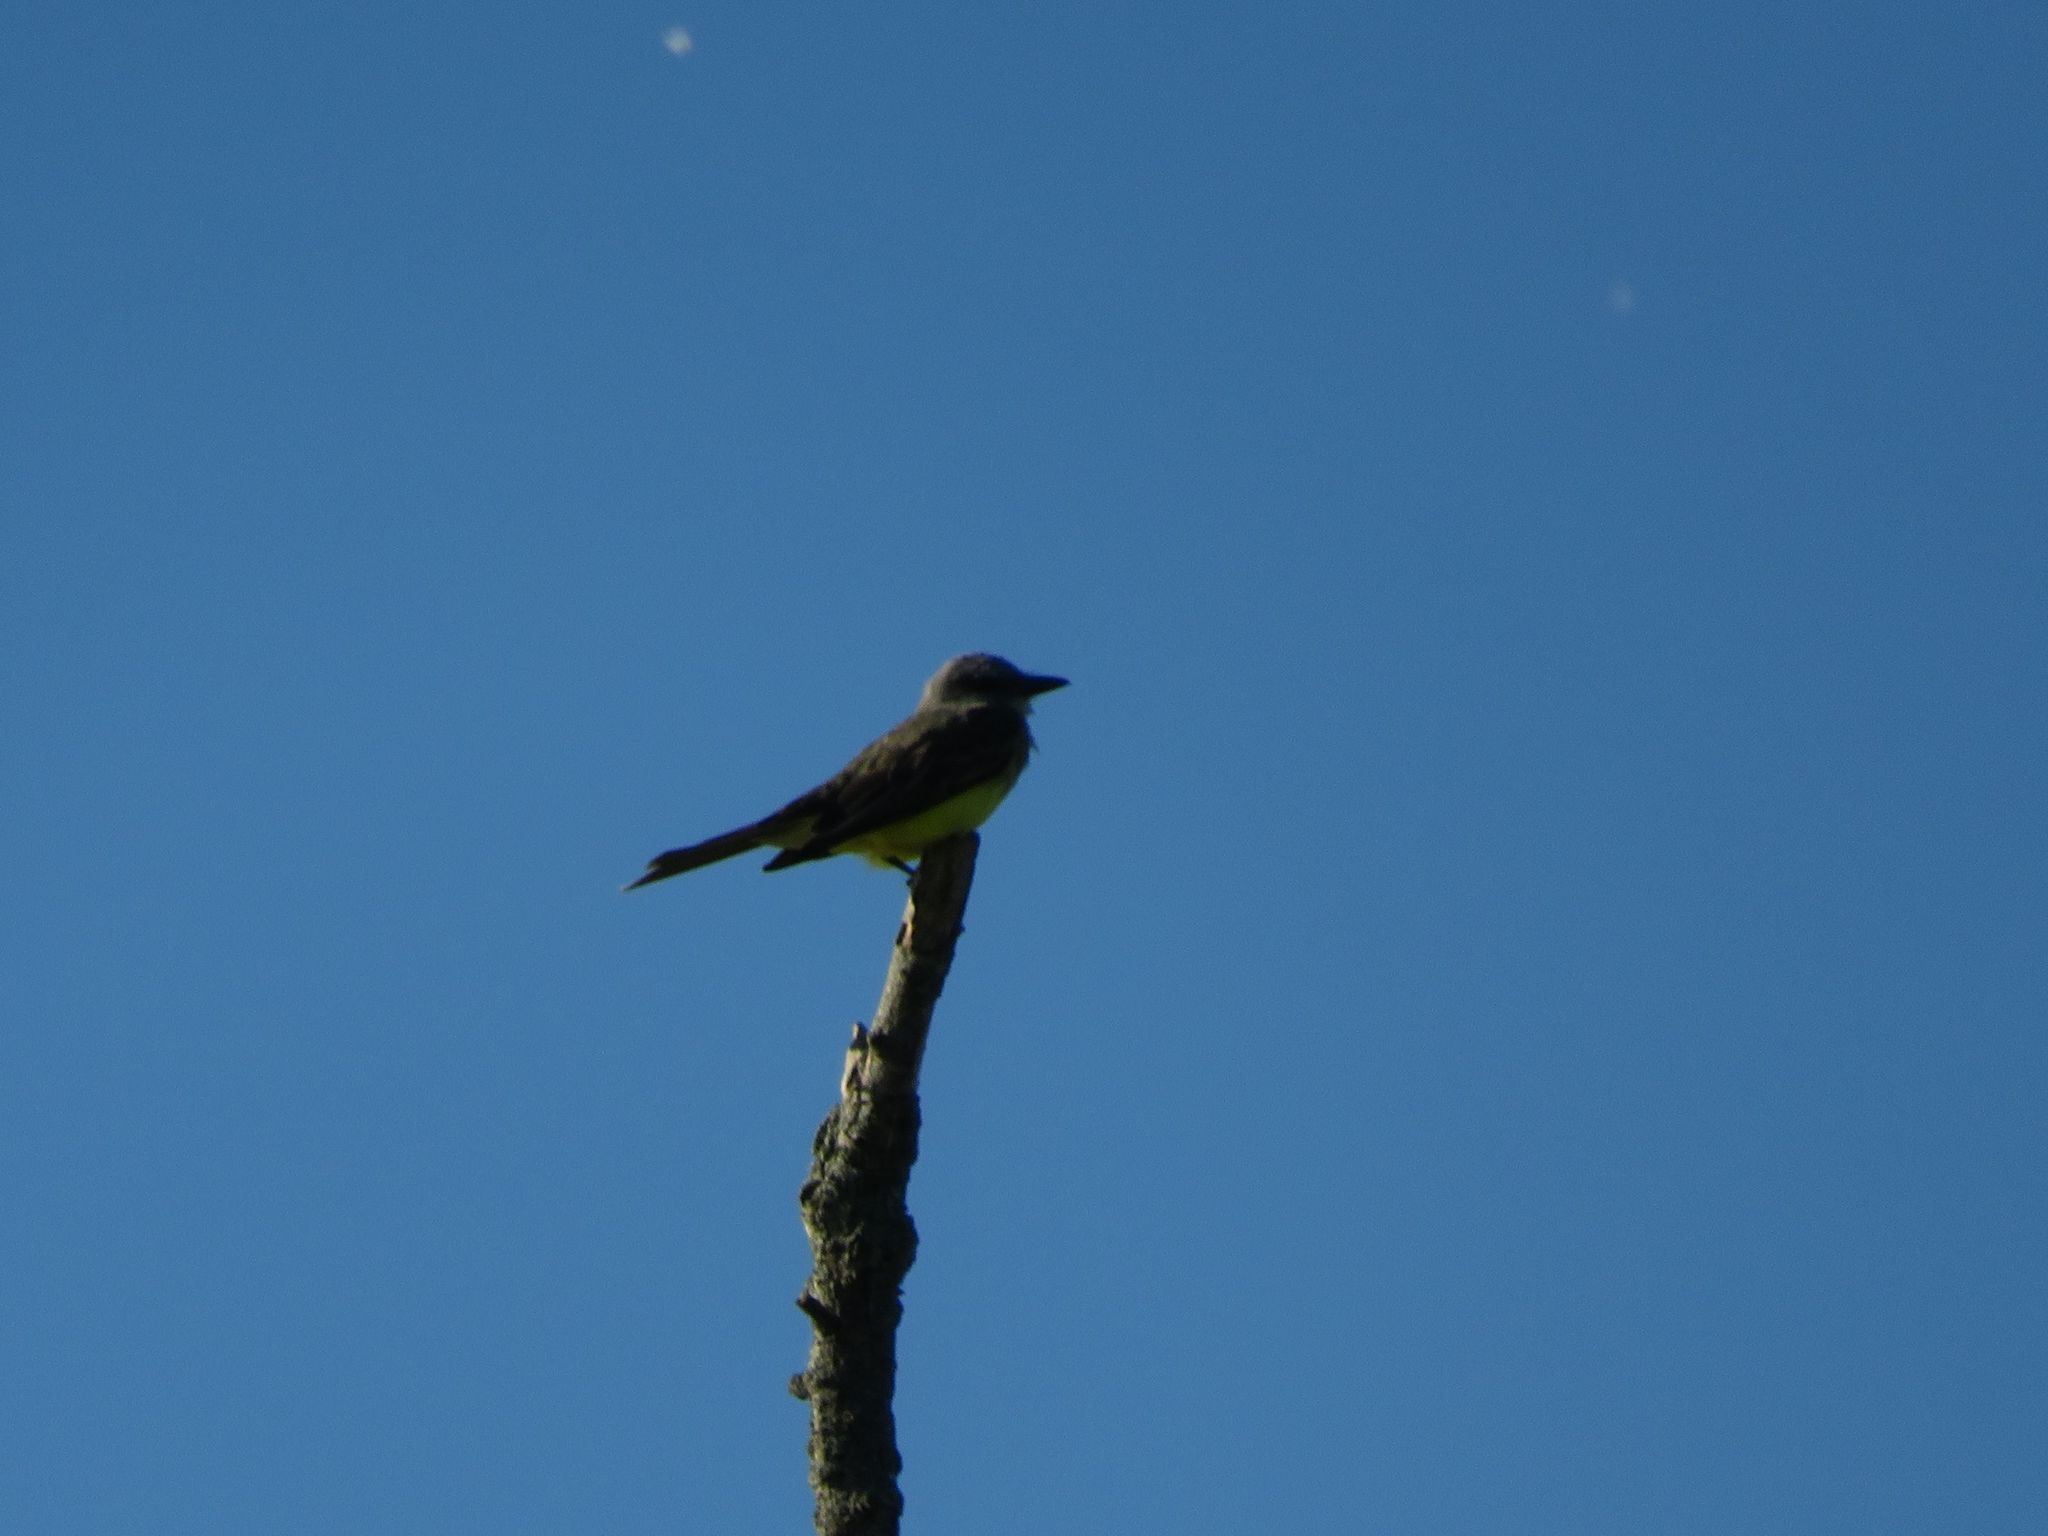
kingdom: Animalia
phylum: Chordata
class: Aves
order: Passeriformes
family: Tyrannidae
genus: Tyrannus
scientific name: Tyrannus melancholicus
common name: Tropical kingbird
